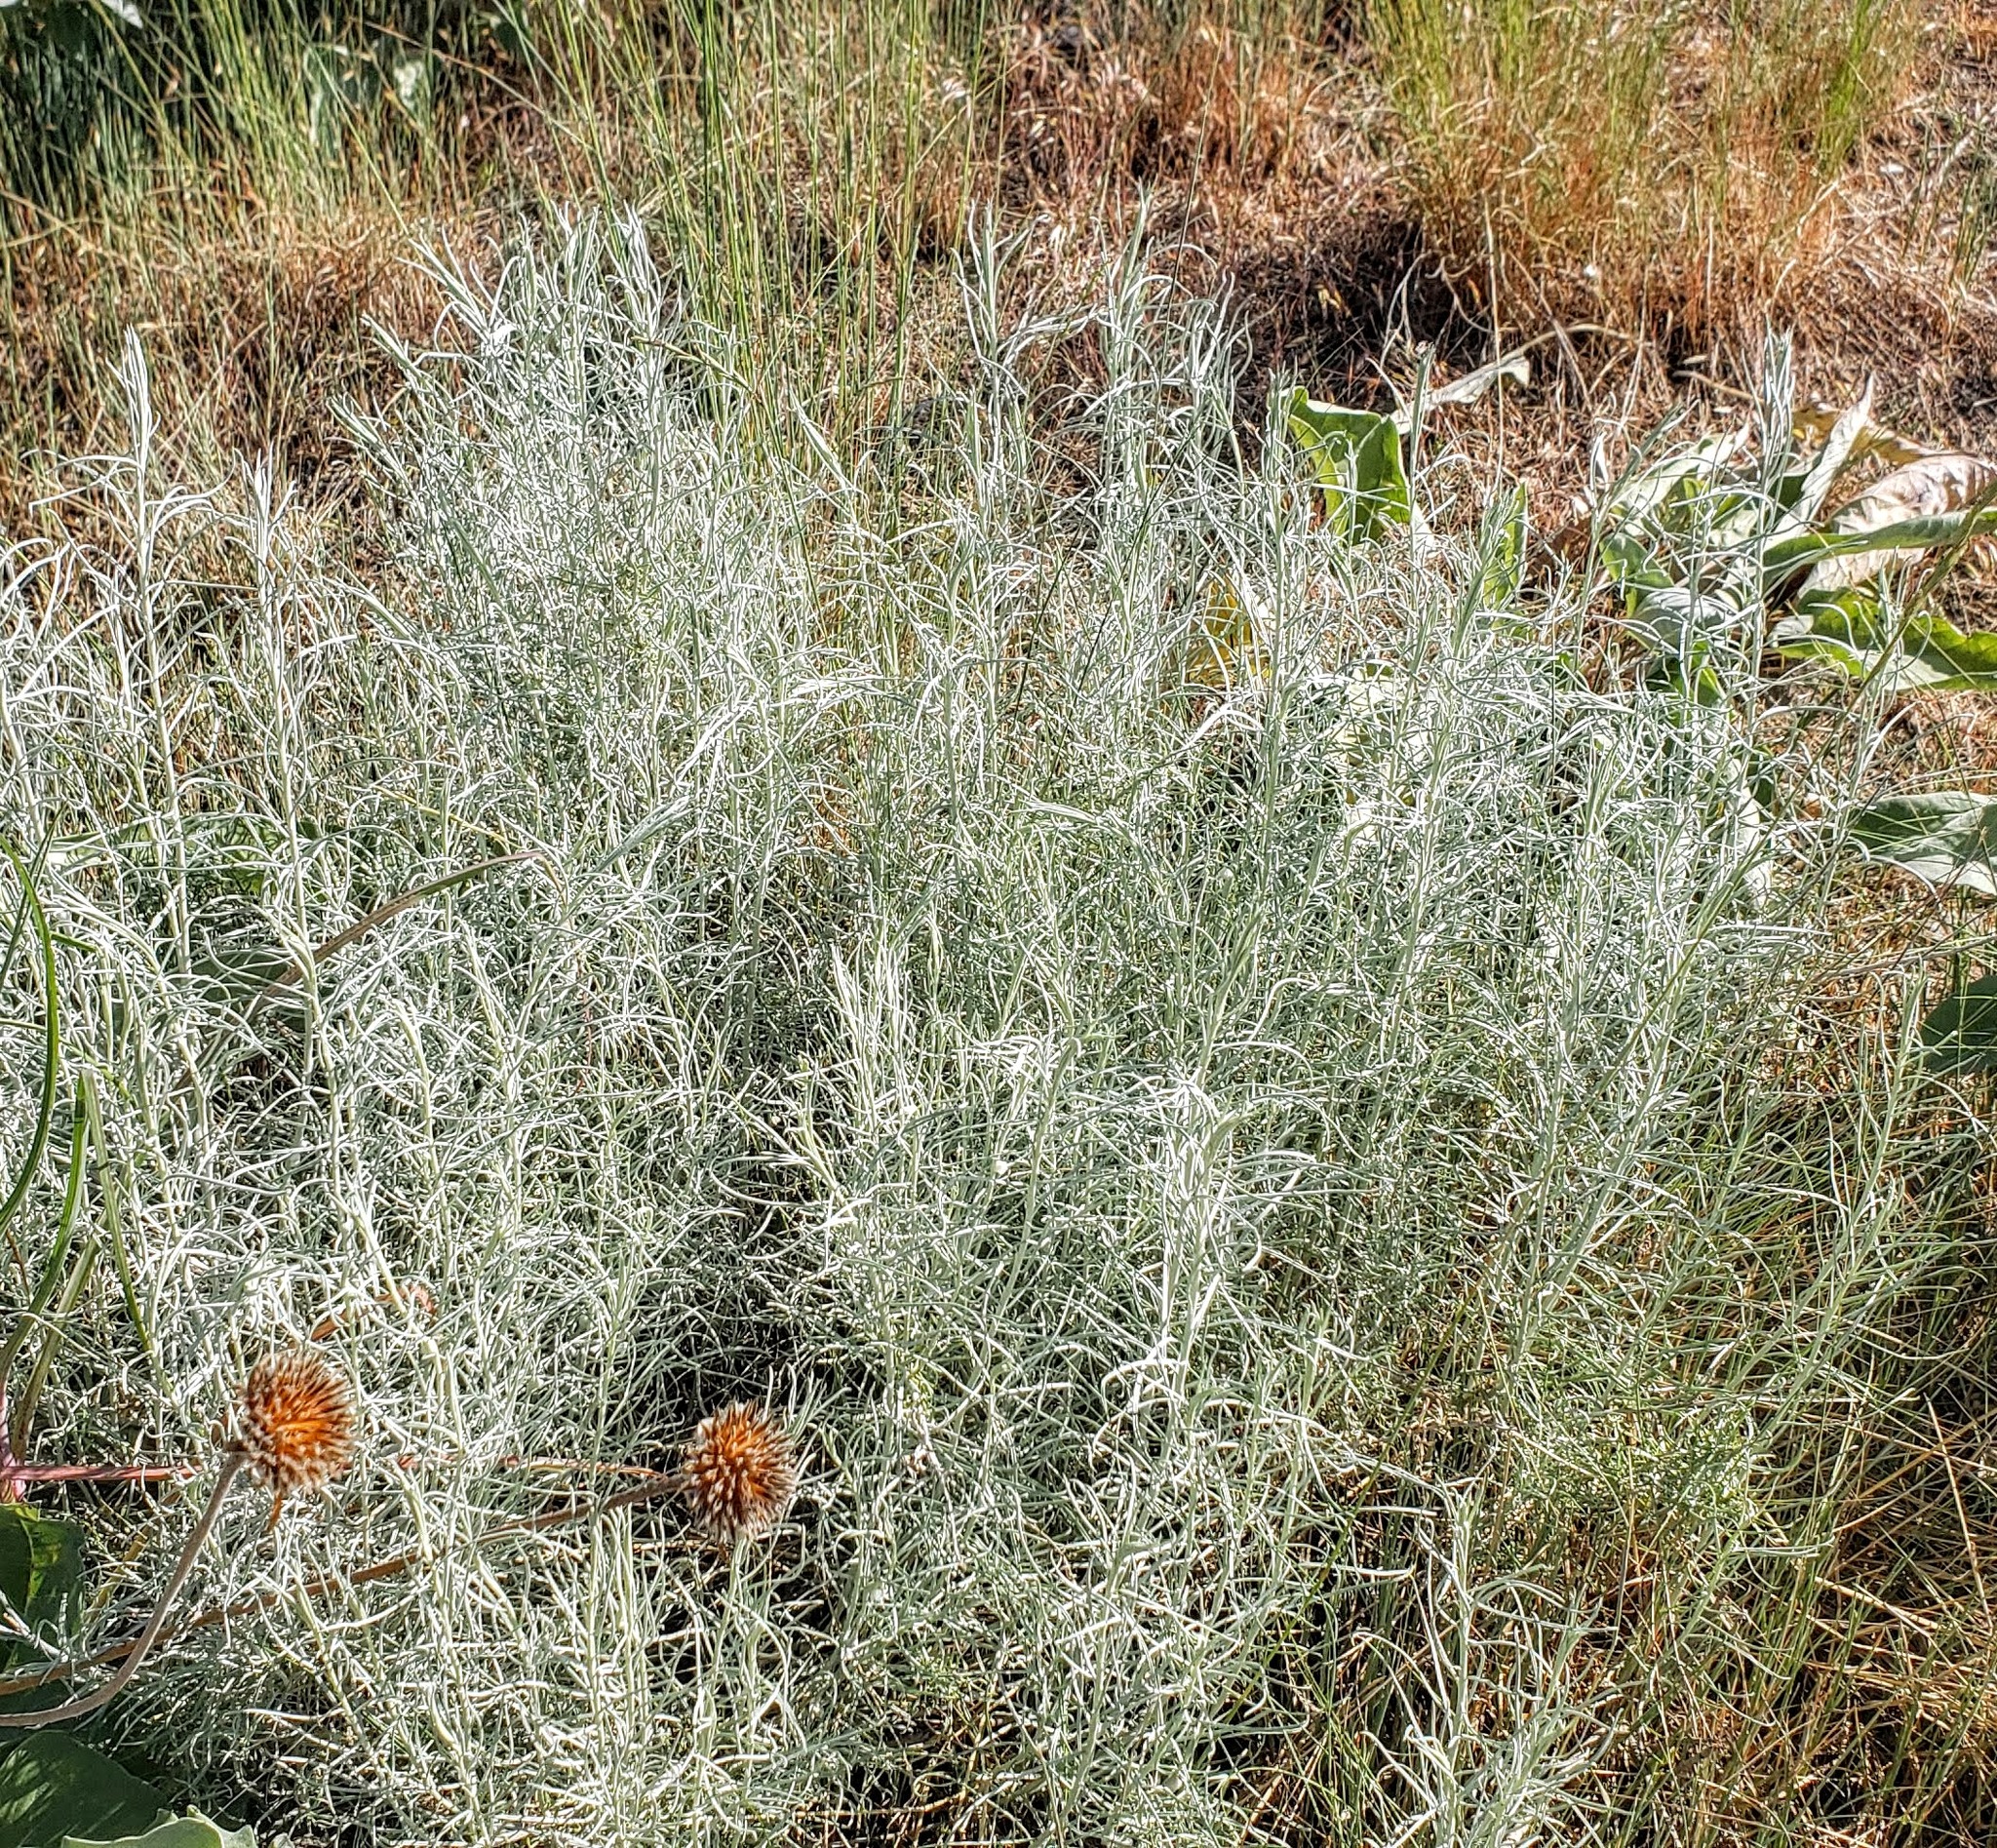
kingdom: Plantae
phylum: Tracheophyta
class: Magnoliopsida
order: Asterales
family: Asteraceae
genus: Ericameria
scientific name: Ericameria nauseosa
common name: Rubber rabbitbrush
